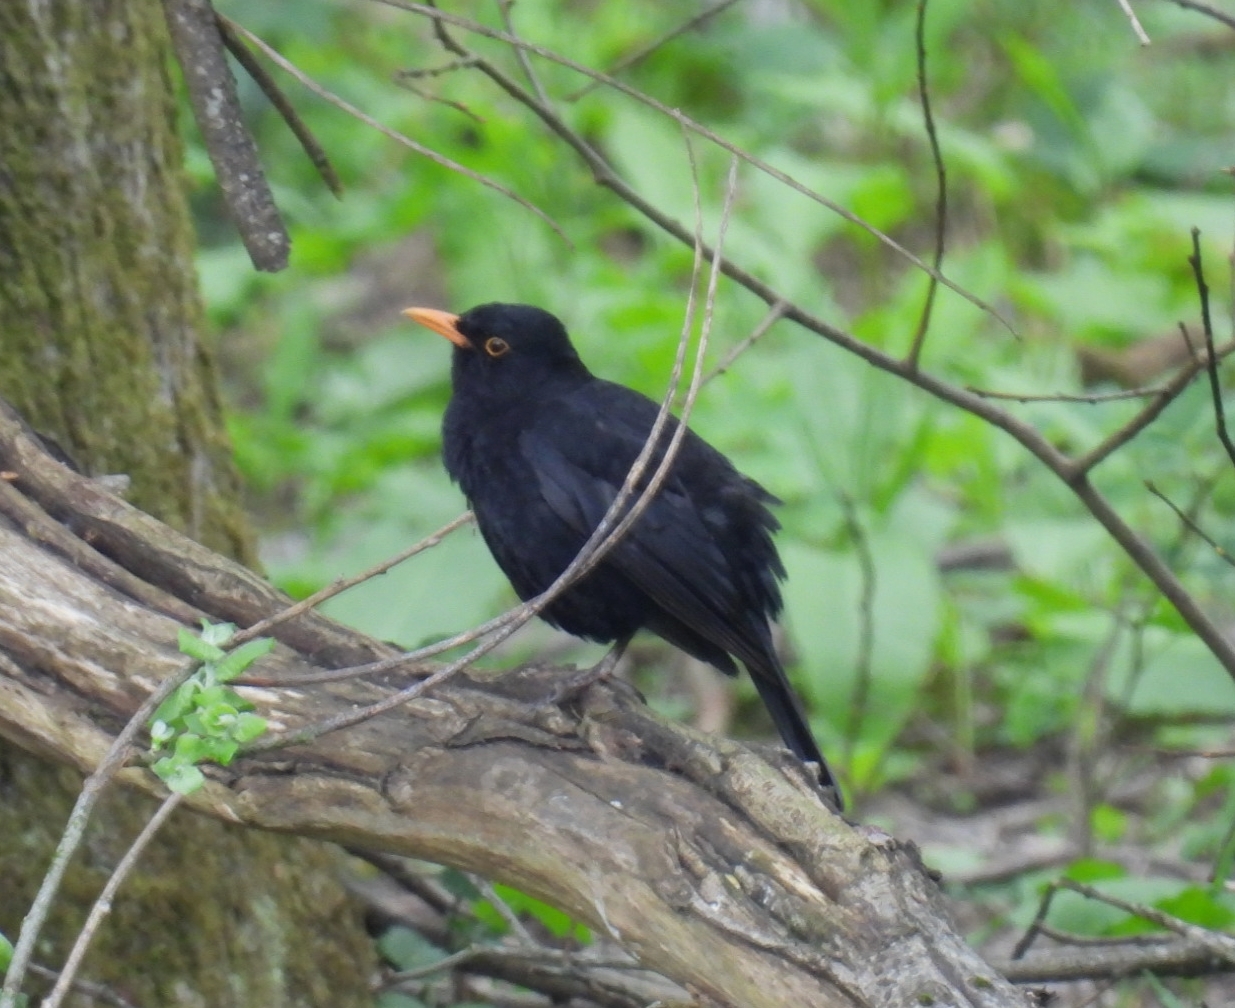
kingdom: Animalia
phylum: Chordata
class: Aves
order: Passeriformes
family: Turdidae
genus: Turdus
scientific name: Turdus merula
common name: Common blackbird
